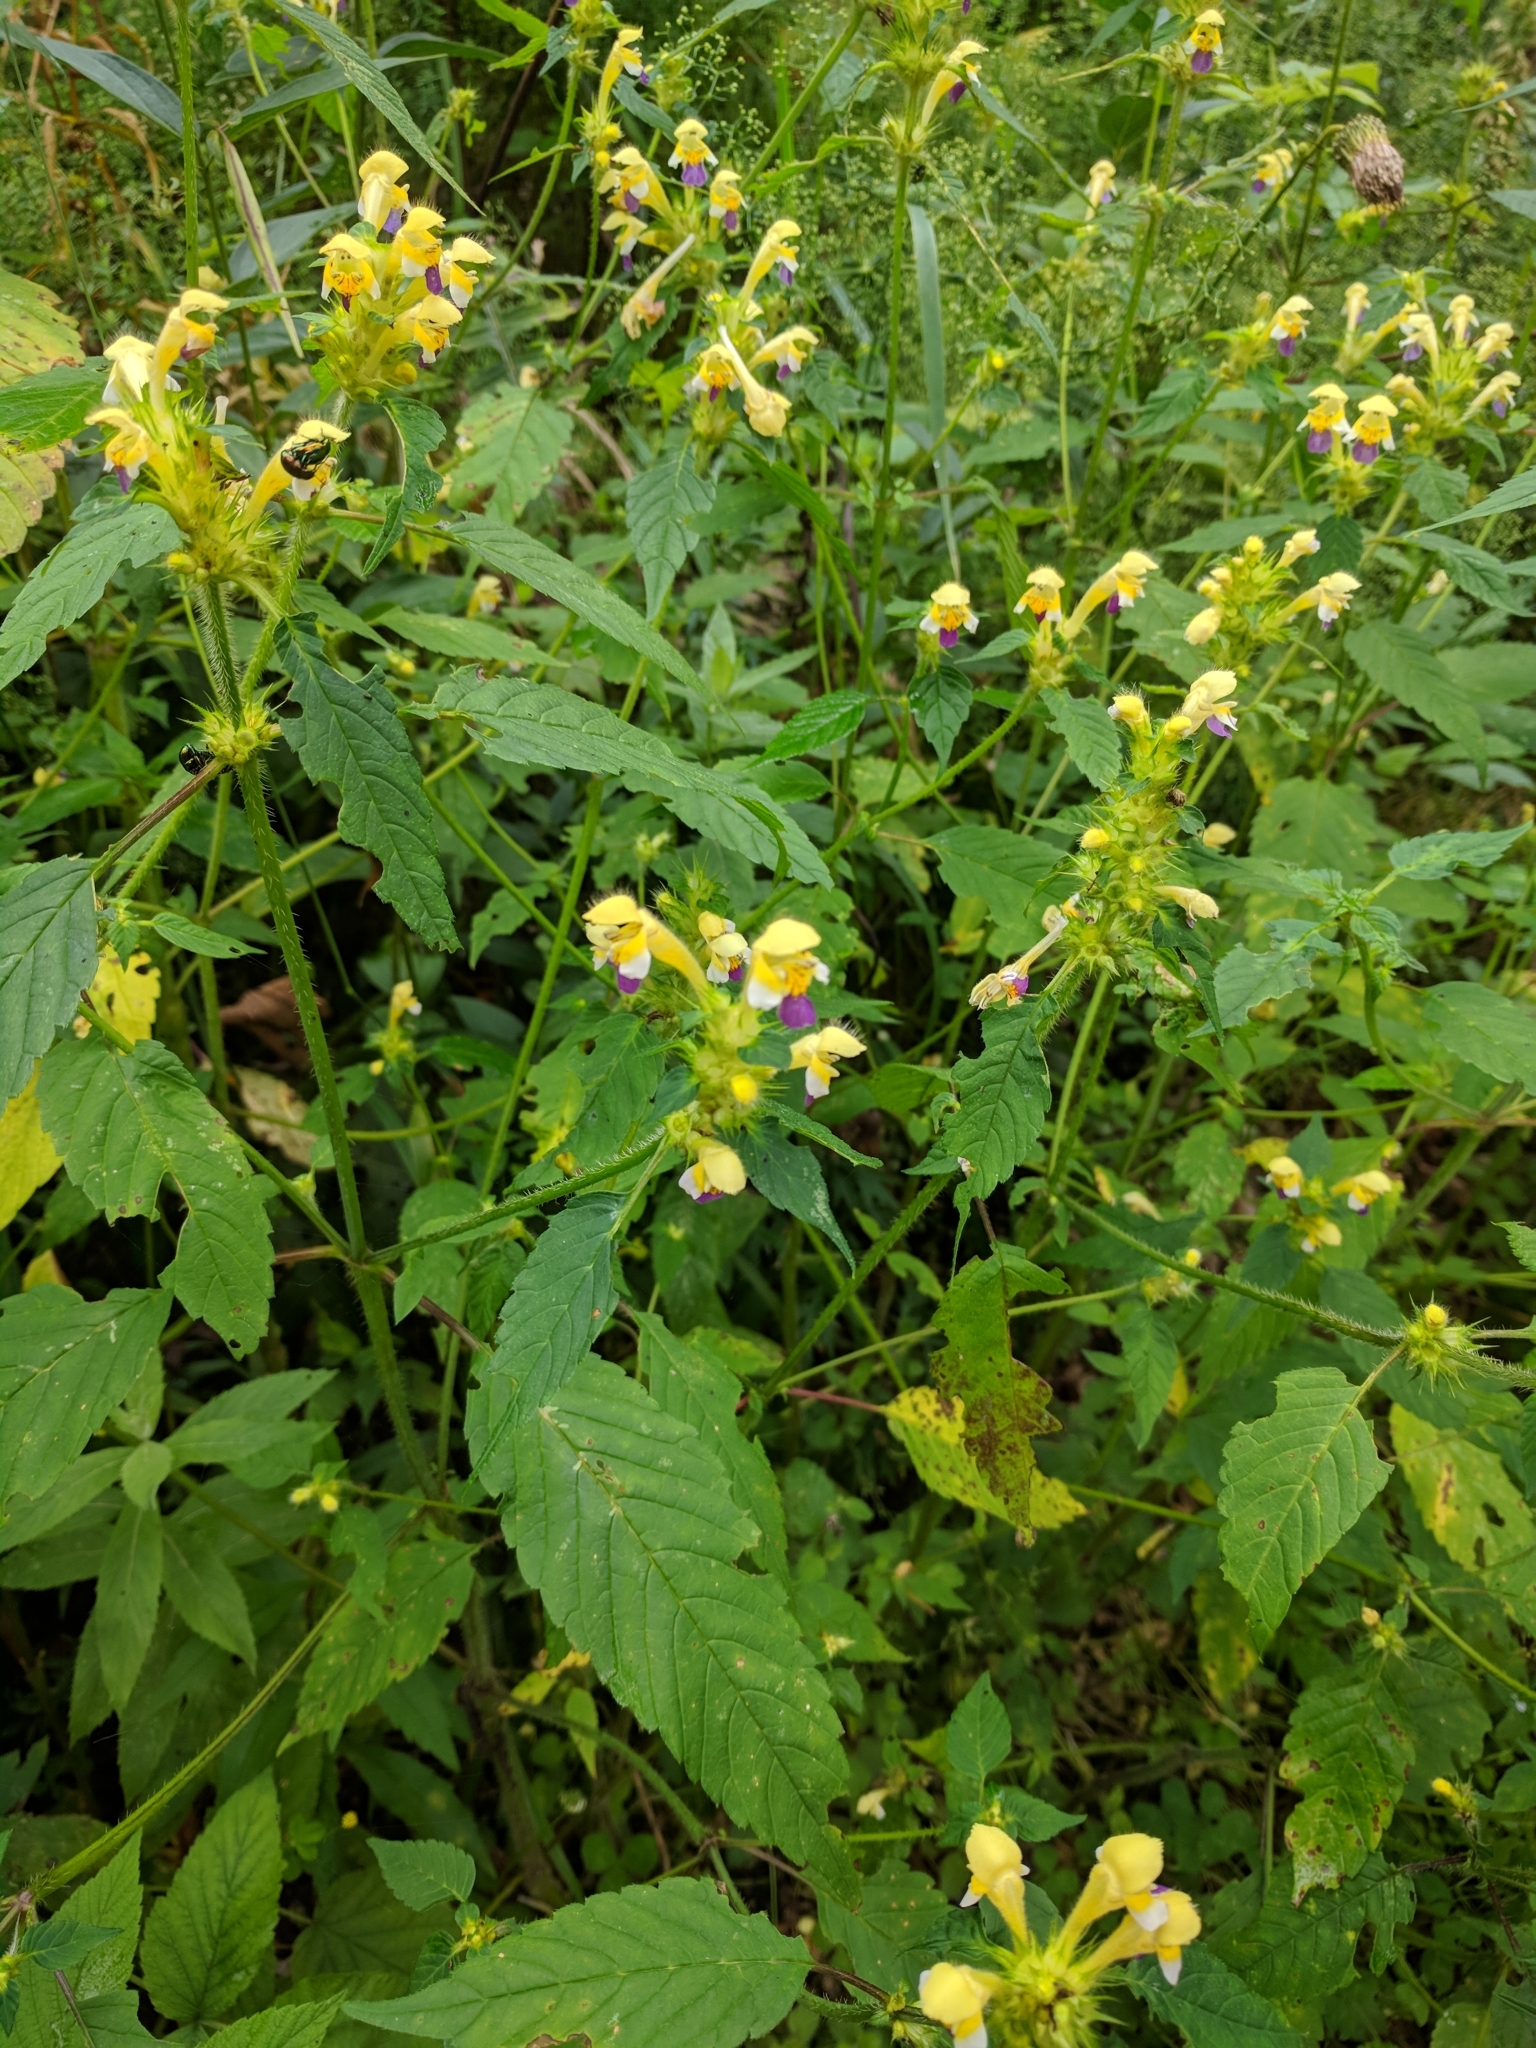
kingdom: Plantae
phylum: Tracheophyta
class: Magnoliopsida
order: Lamiales
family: Lamiaceae
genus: Galeopsis
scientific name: Galeopsis speciosa
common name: Large-flowered hemp-nettle
